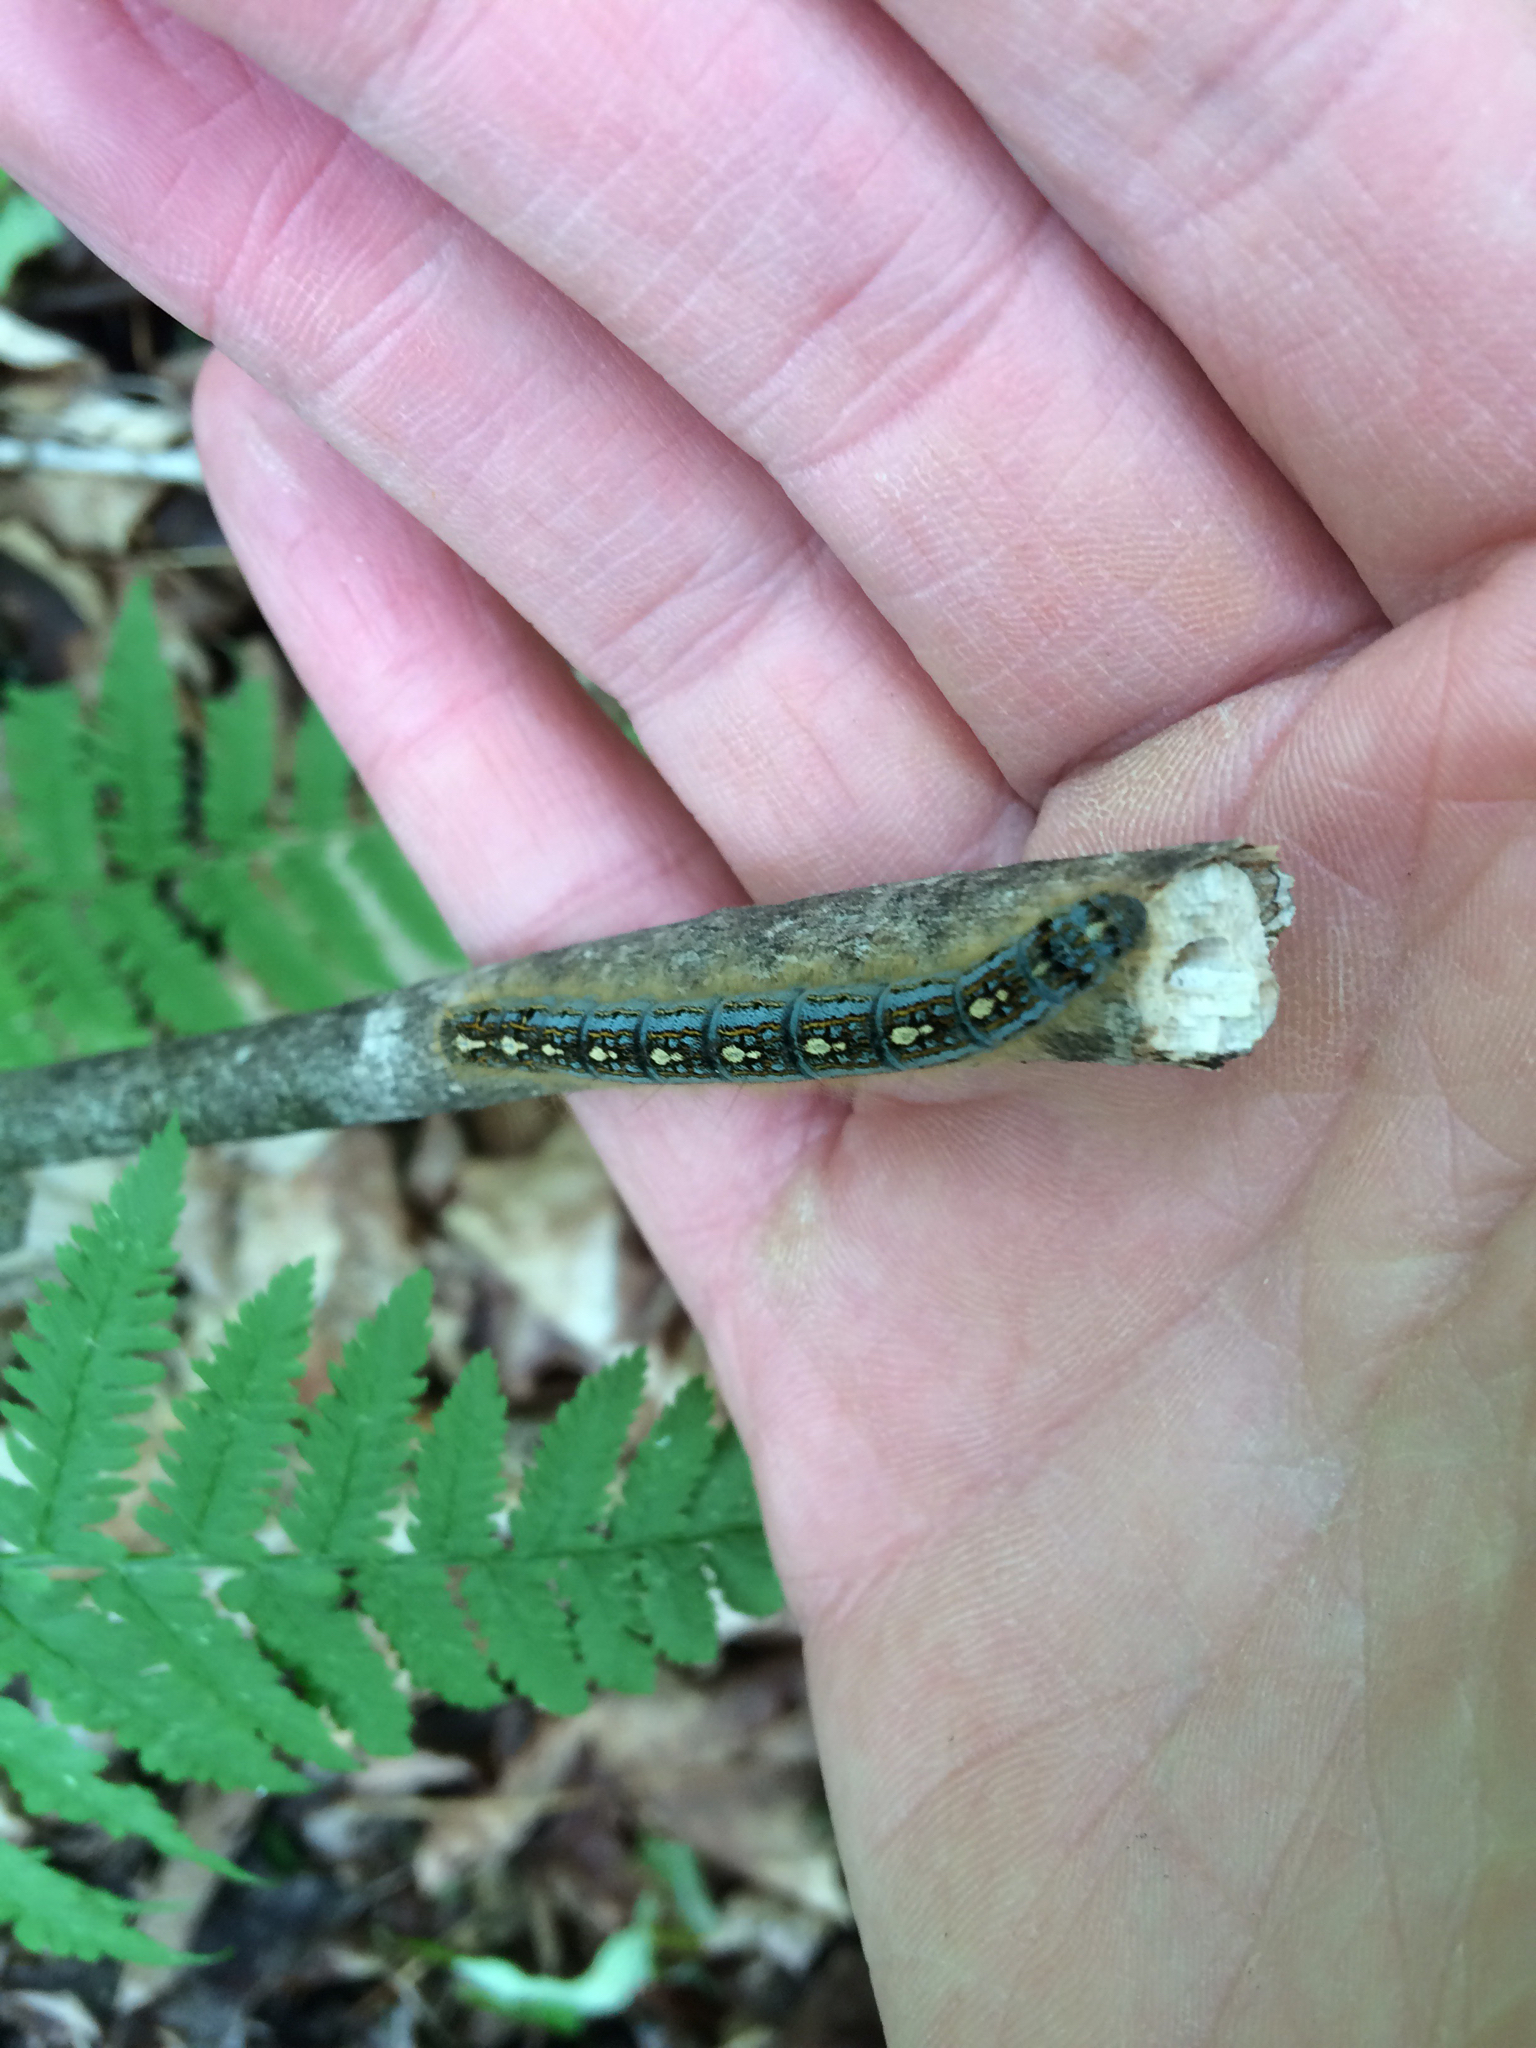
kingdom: Animalia
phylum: Arthropoda
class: Insecta
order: Lepidoptera
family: Lasiocampidae
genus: Malacosoma
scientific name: Malacosoma disstria
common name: Forest tent caterpillar
